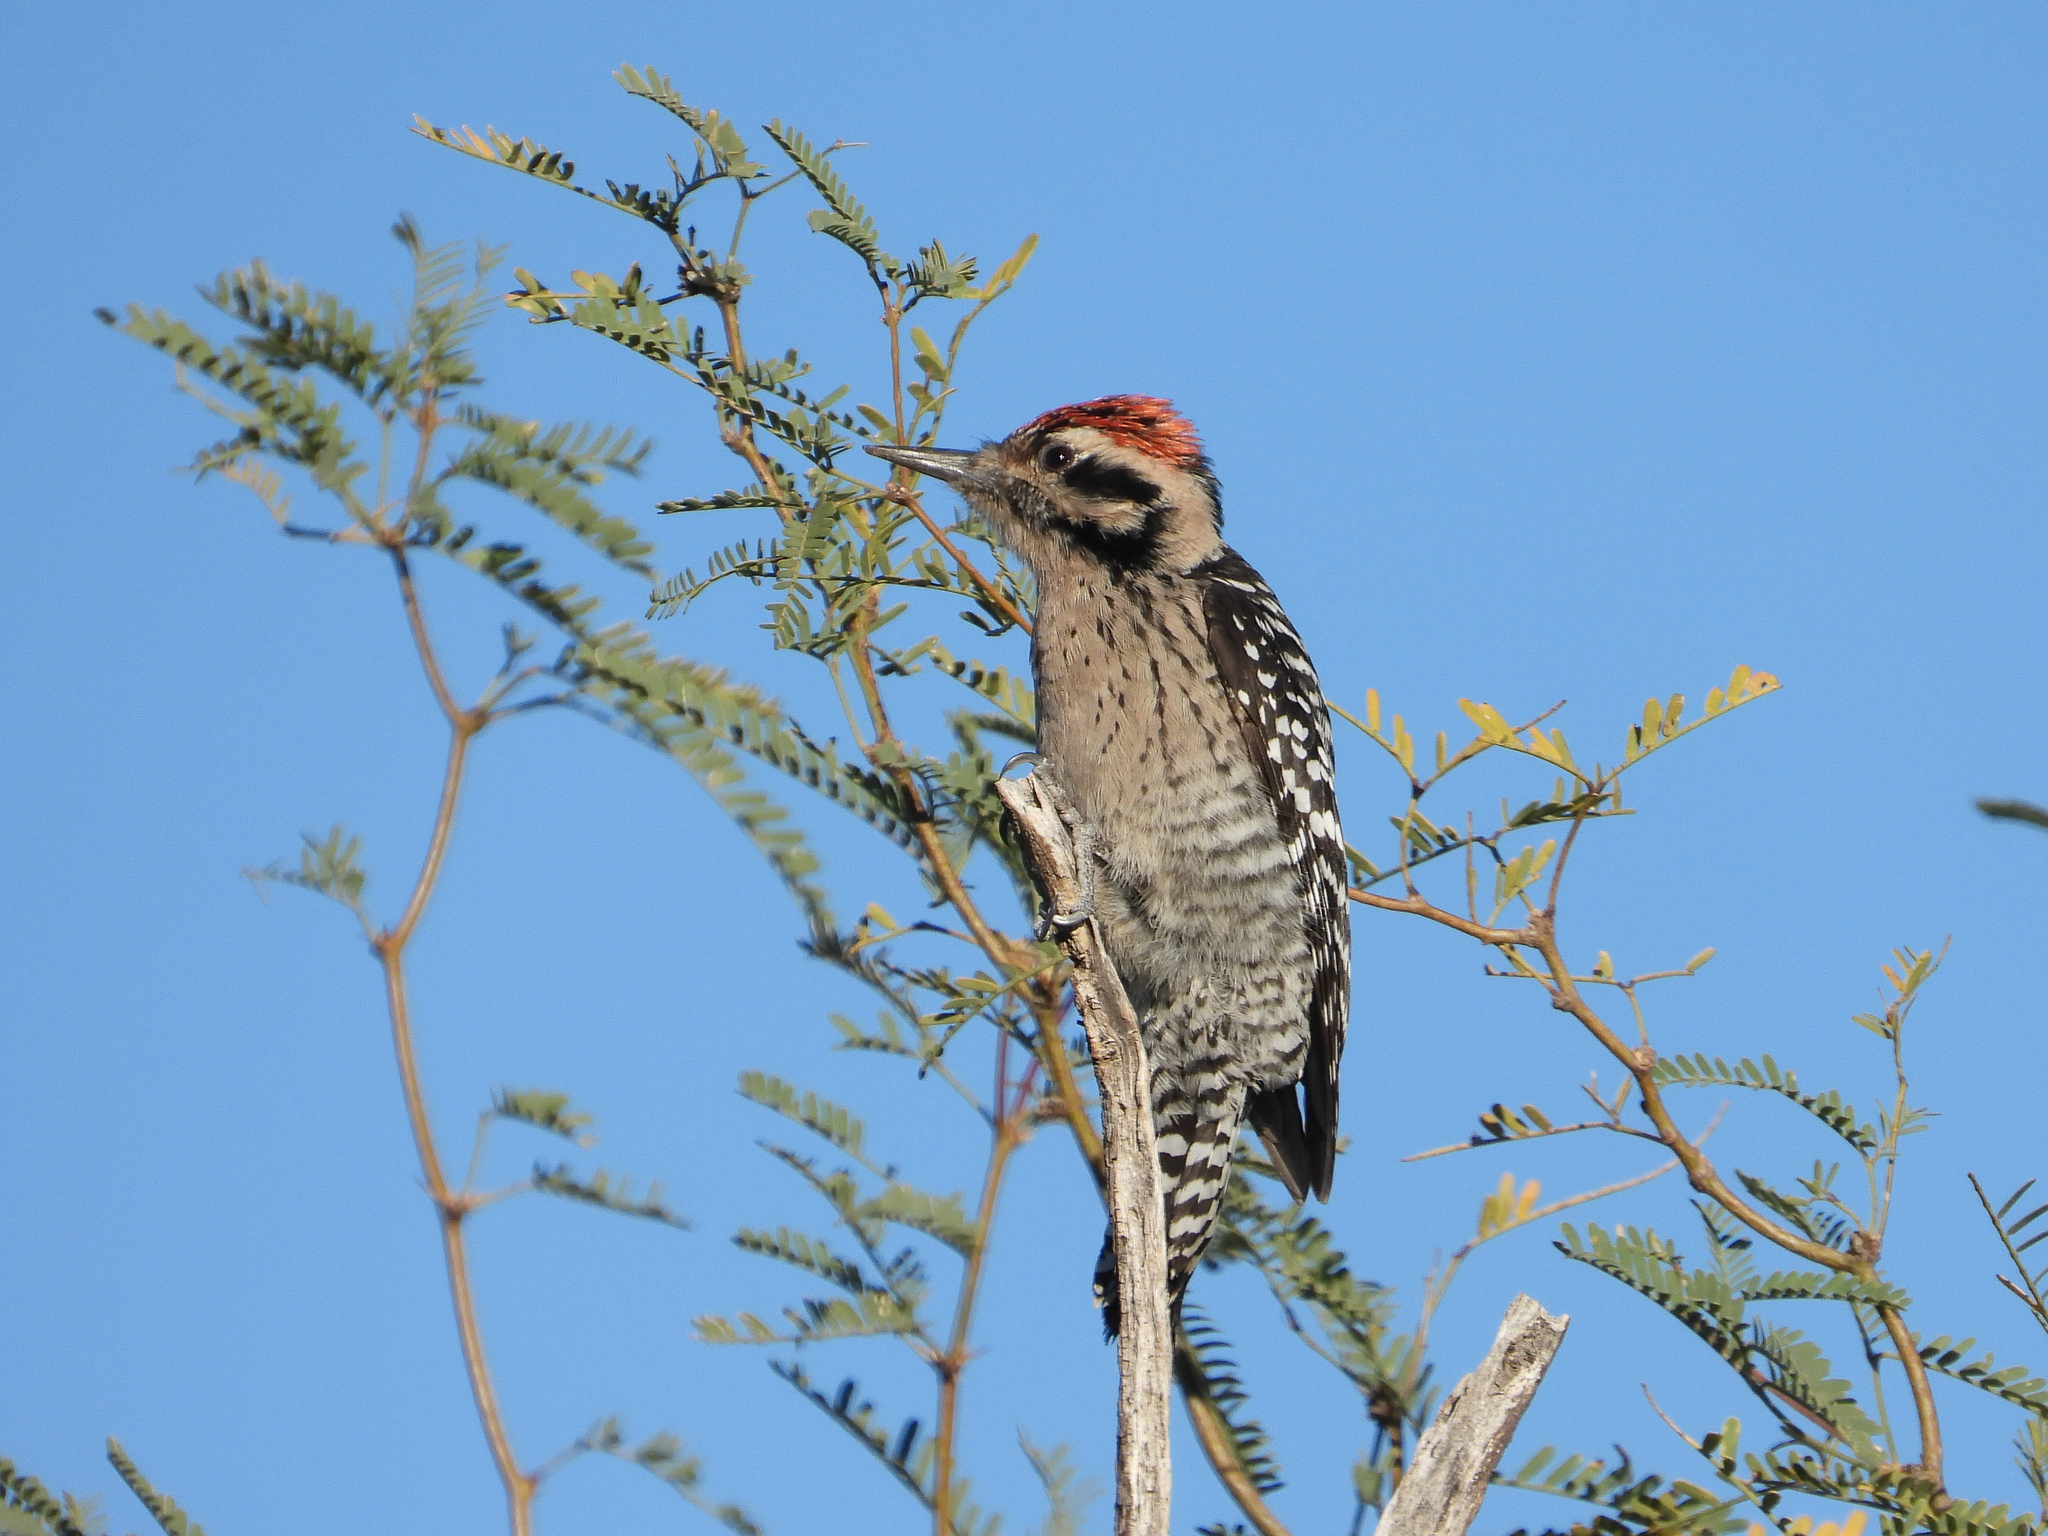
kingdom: Animalia
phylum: Chordata
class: Aves
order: Piciformes
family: Picidae
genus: Dryobates
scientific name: Dryobates scalaris
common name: Ladder-backed woodpecker
